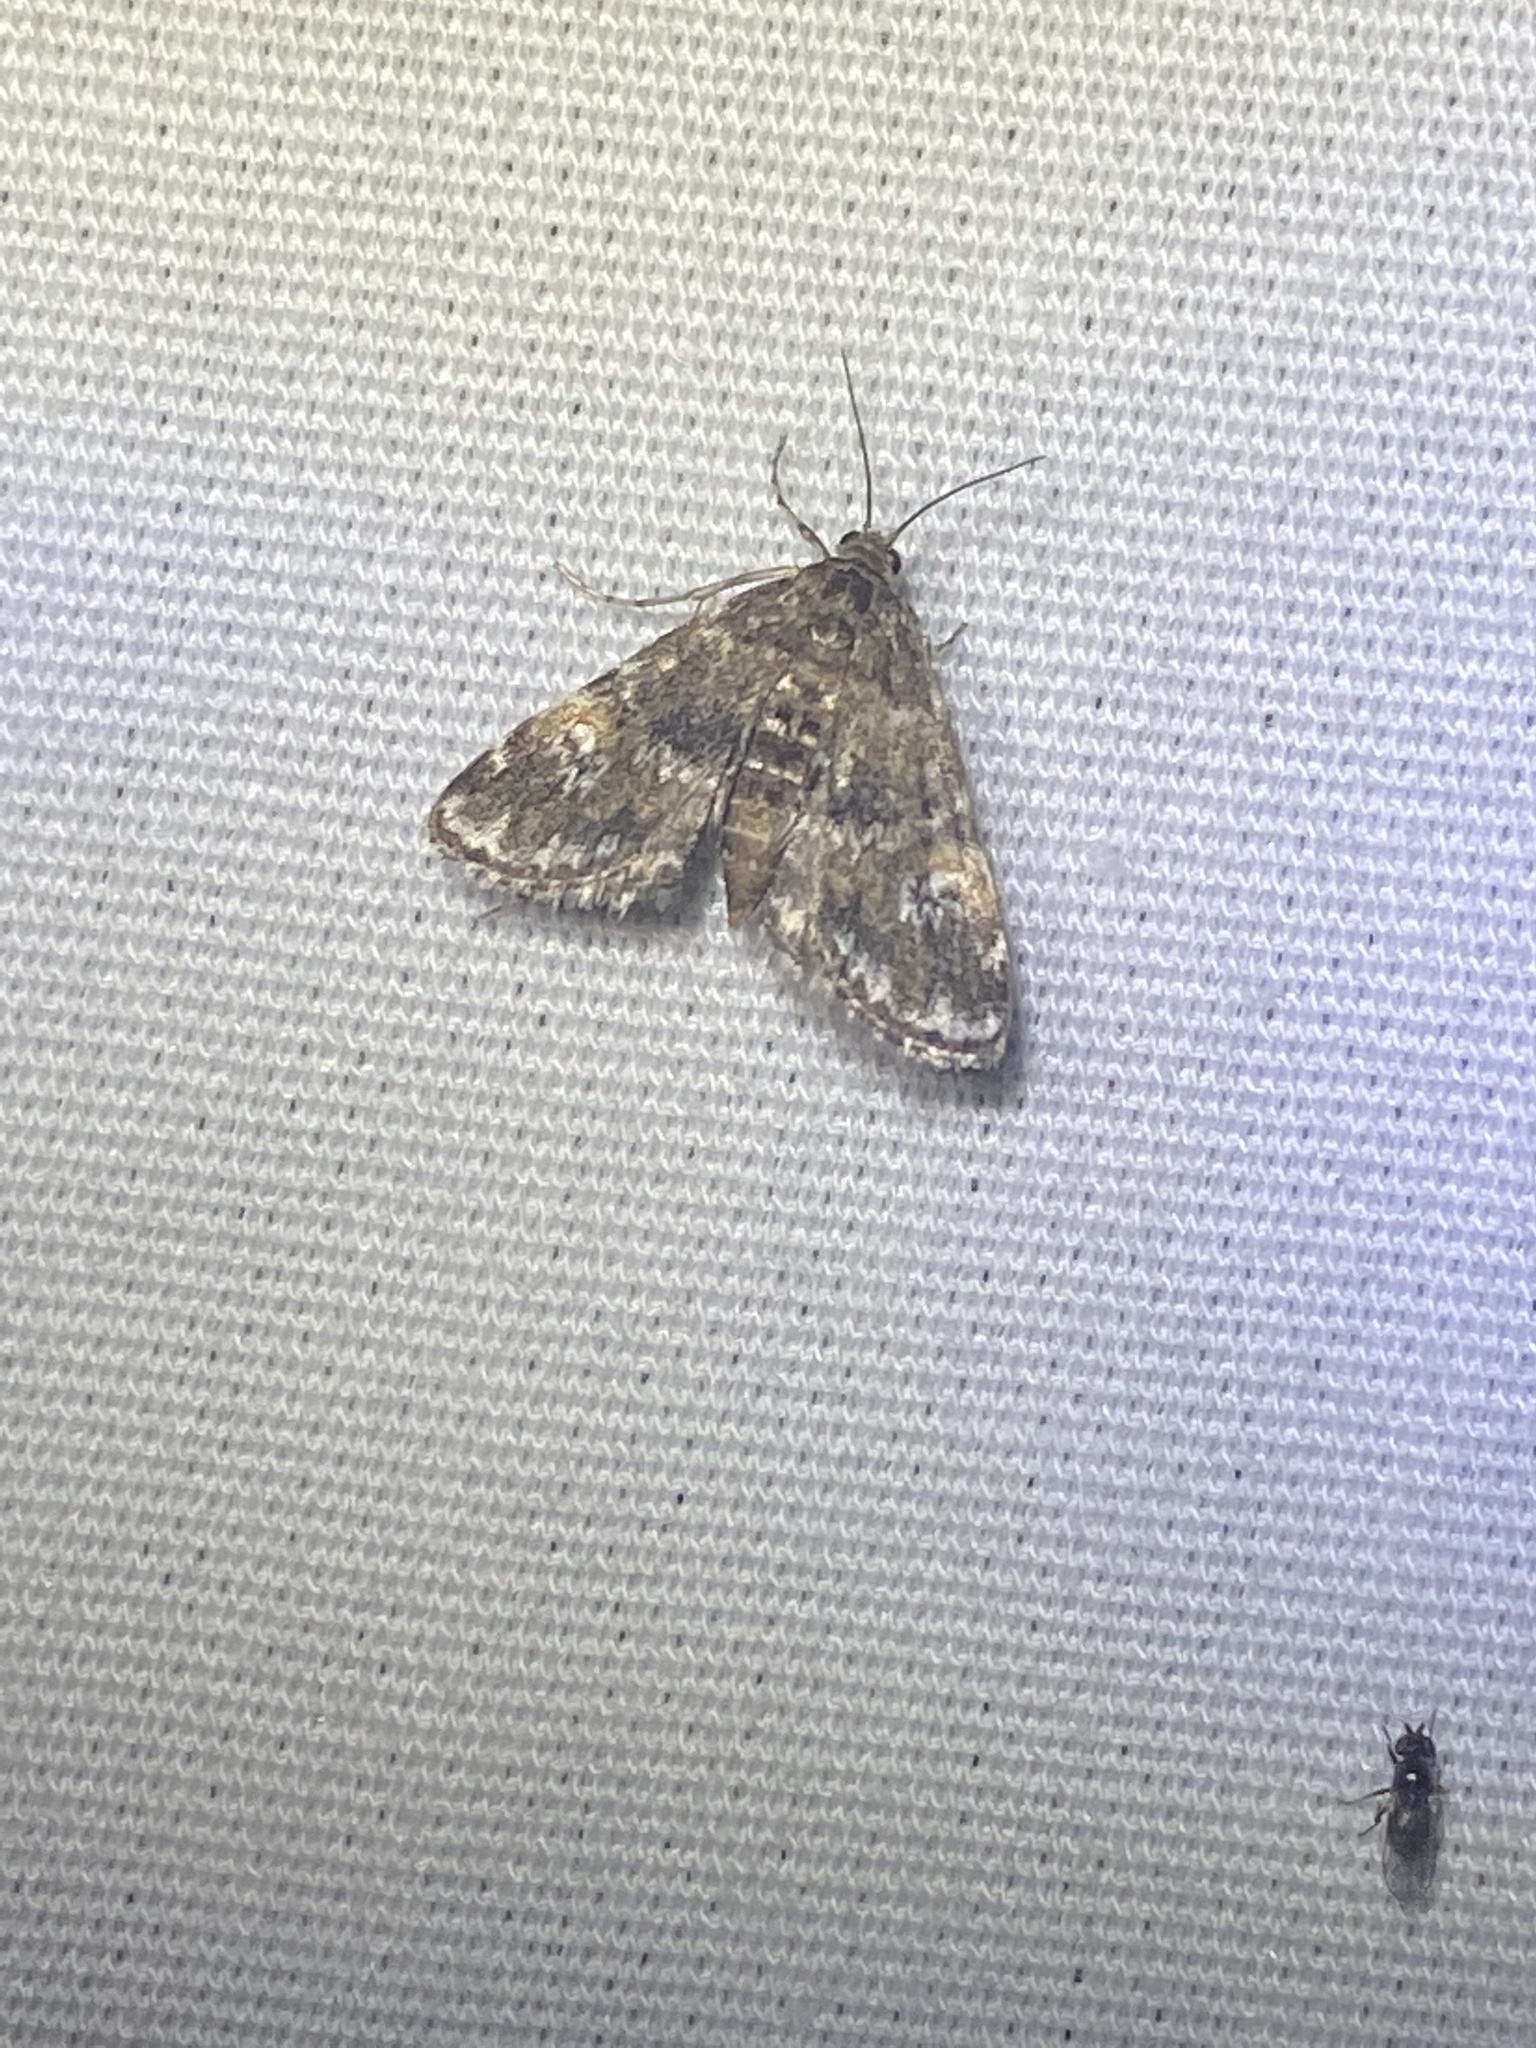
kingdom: Animalia
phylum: Arthropoda
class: Insecta
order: Lepidoptera
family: Crambidae
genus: Elophila
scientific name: Elophila obliteralis
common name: Waterlily leafcutter moth
